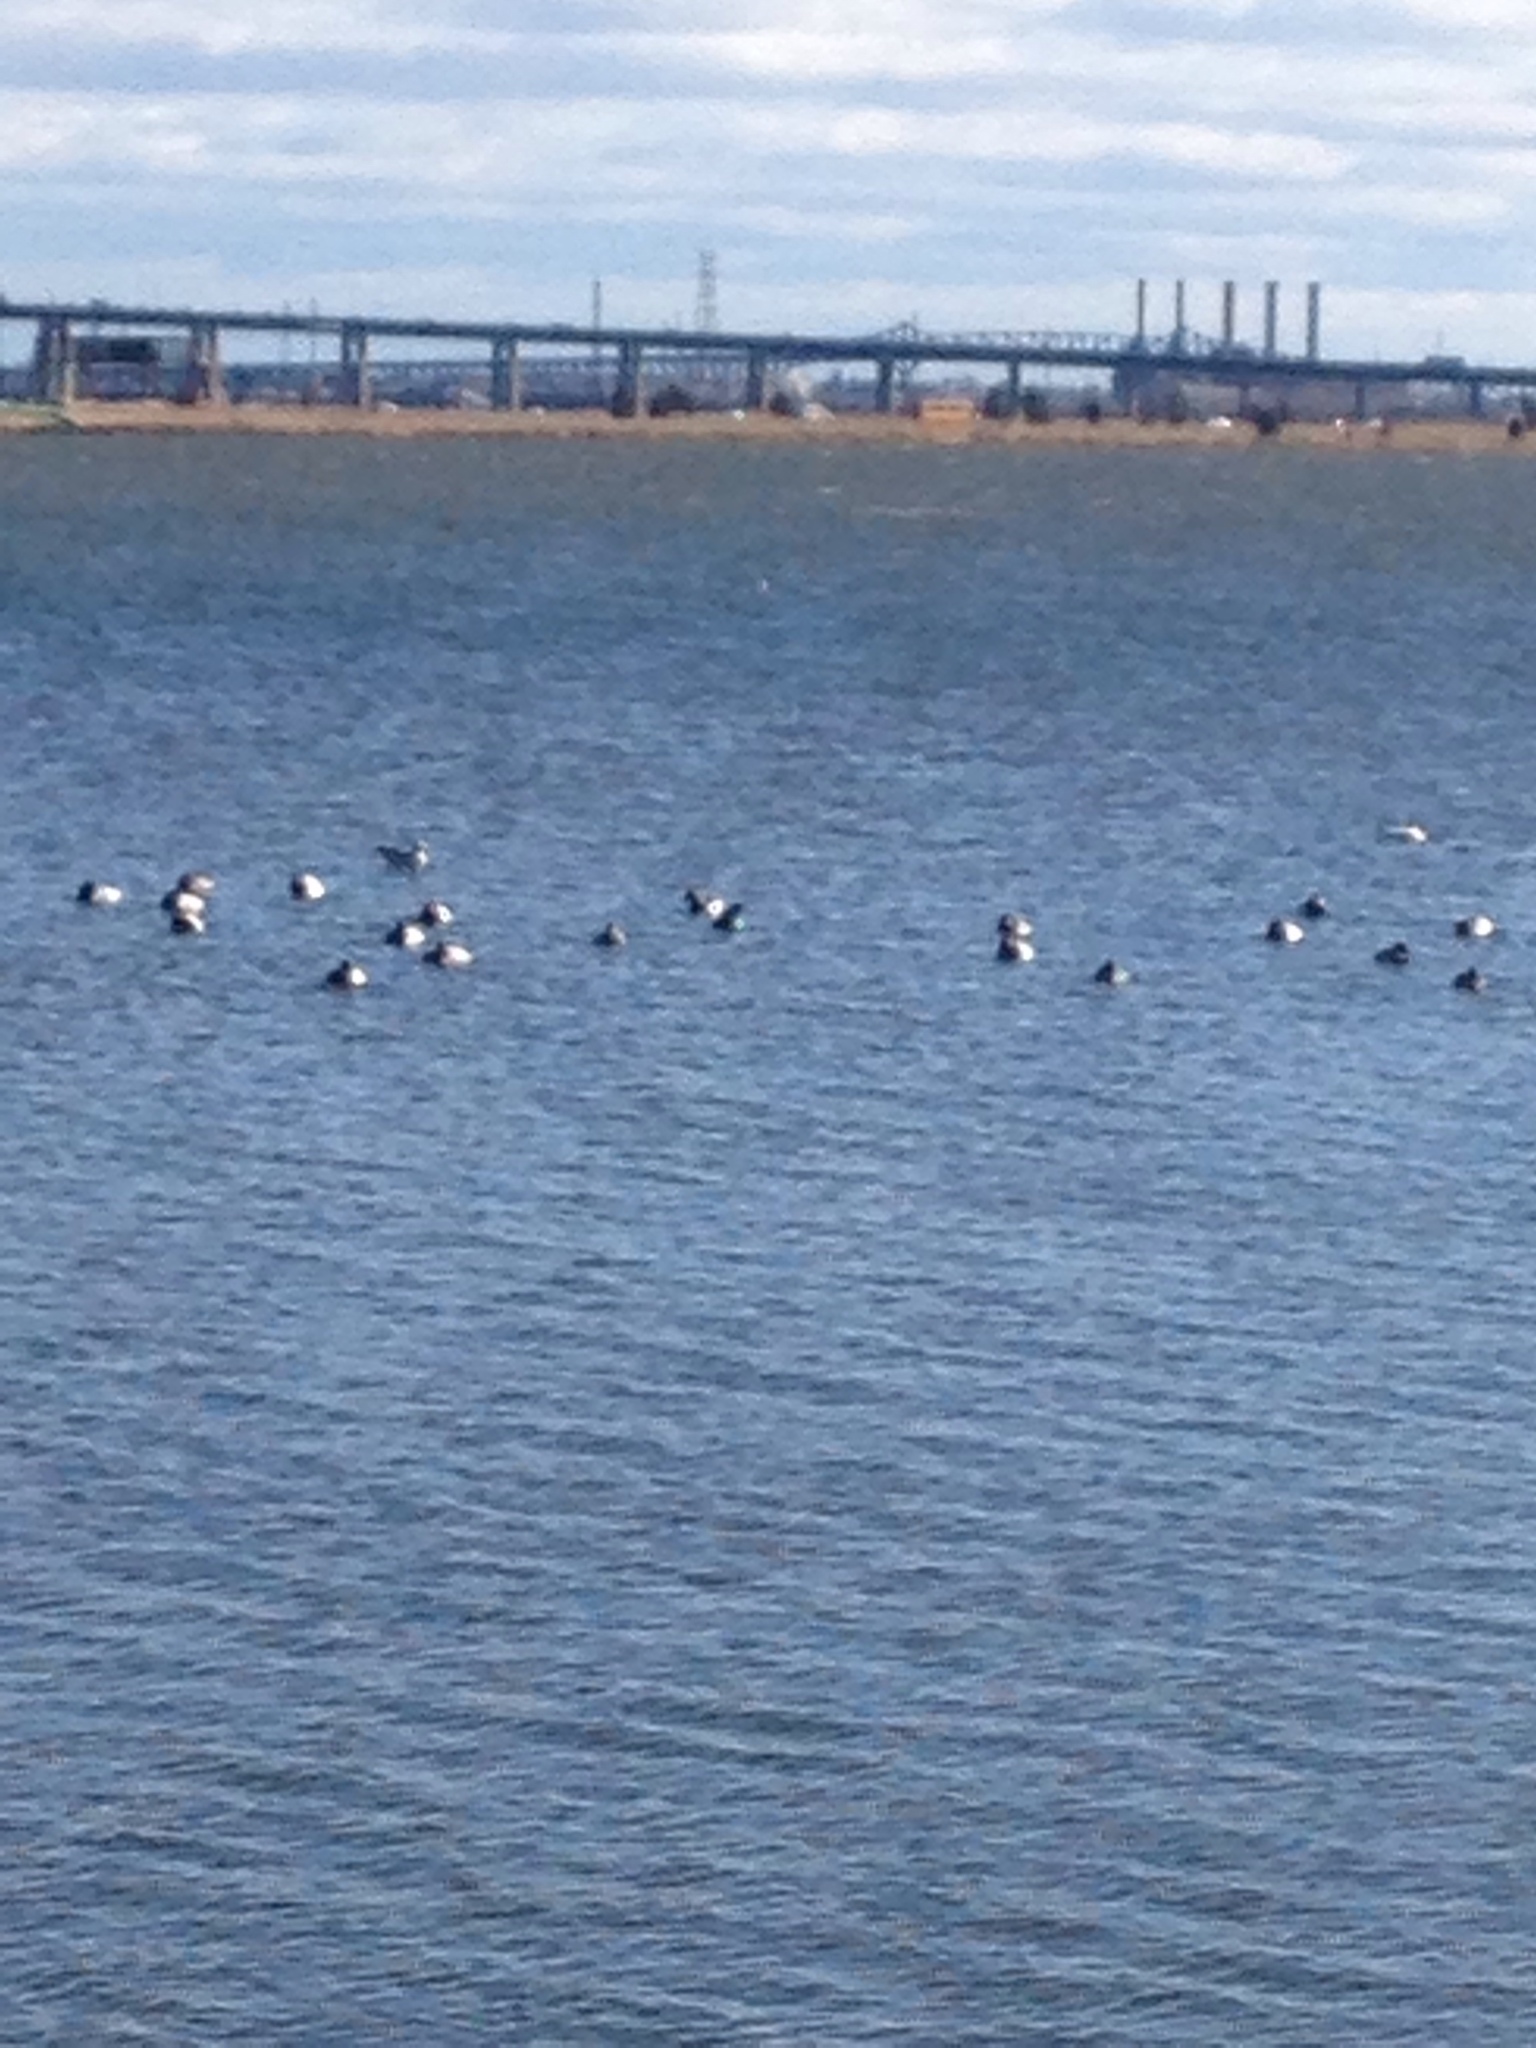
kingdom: Animalia
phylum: Chordata
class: Aves
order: Anseriformes
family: Anatidae
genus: Aythya
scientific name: Aythya valisineria
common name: Canvasback
